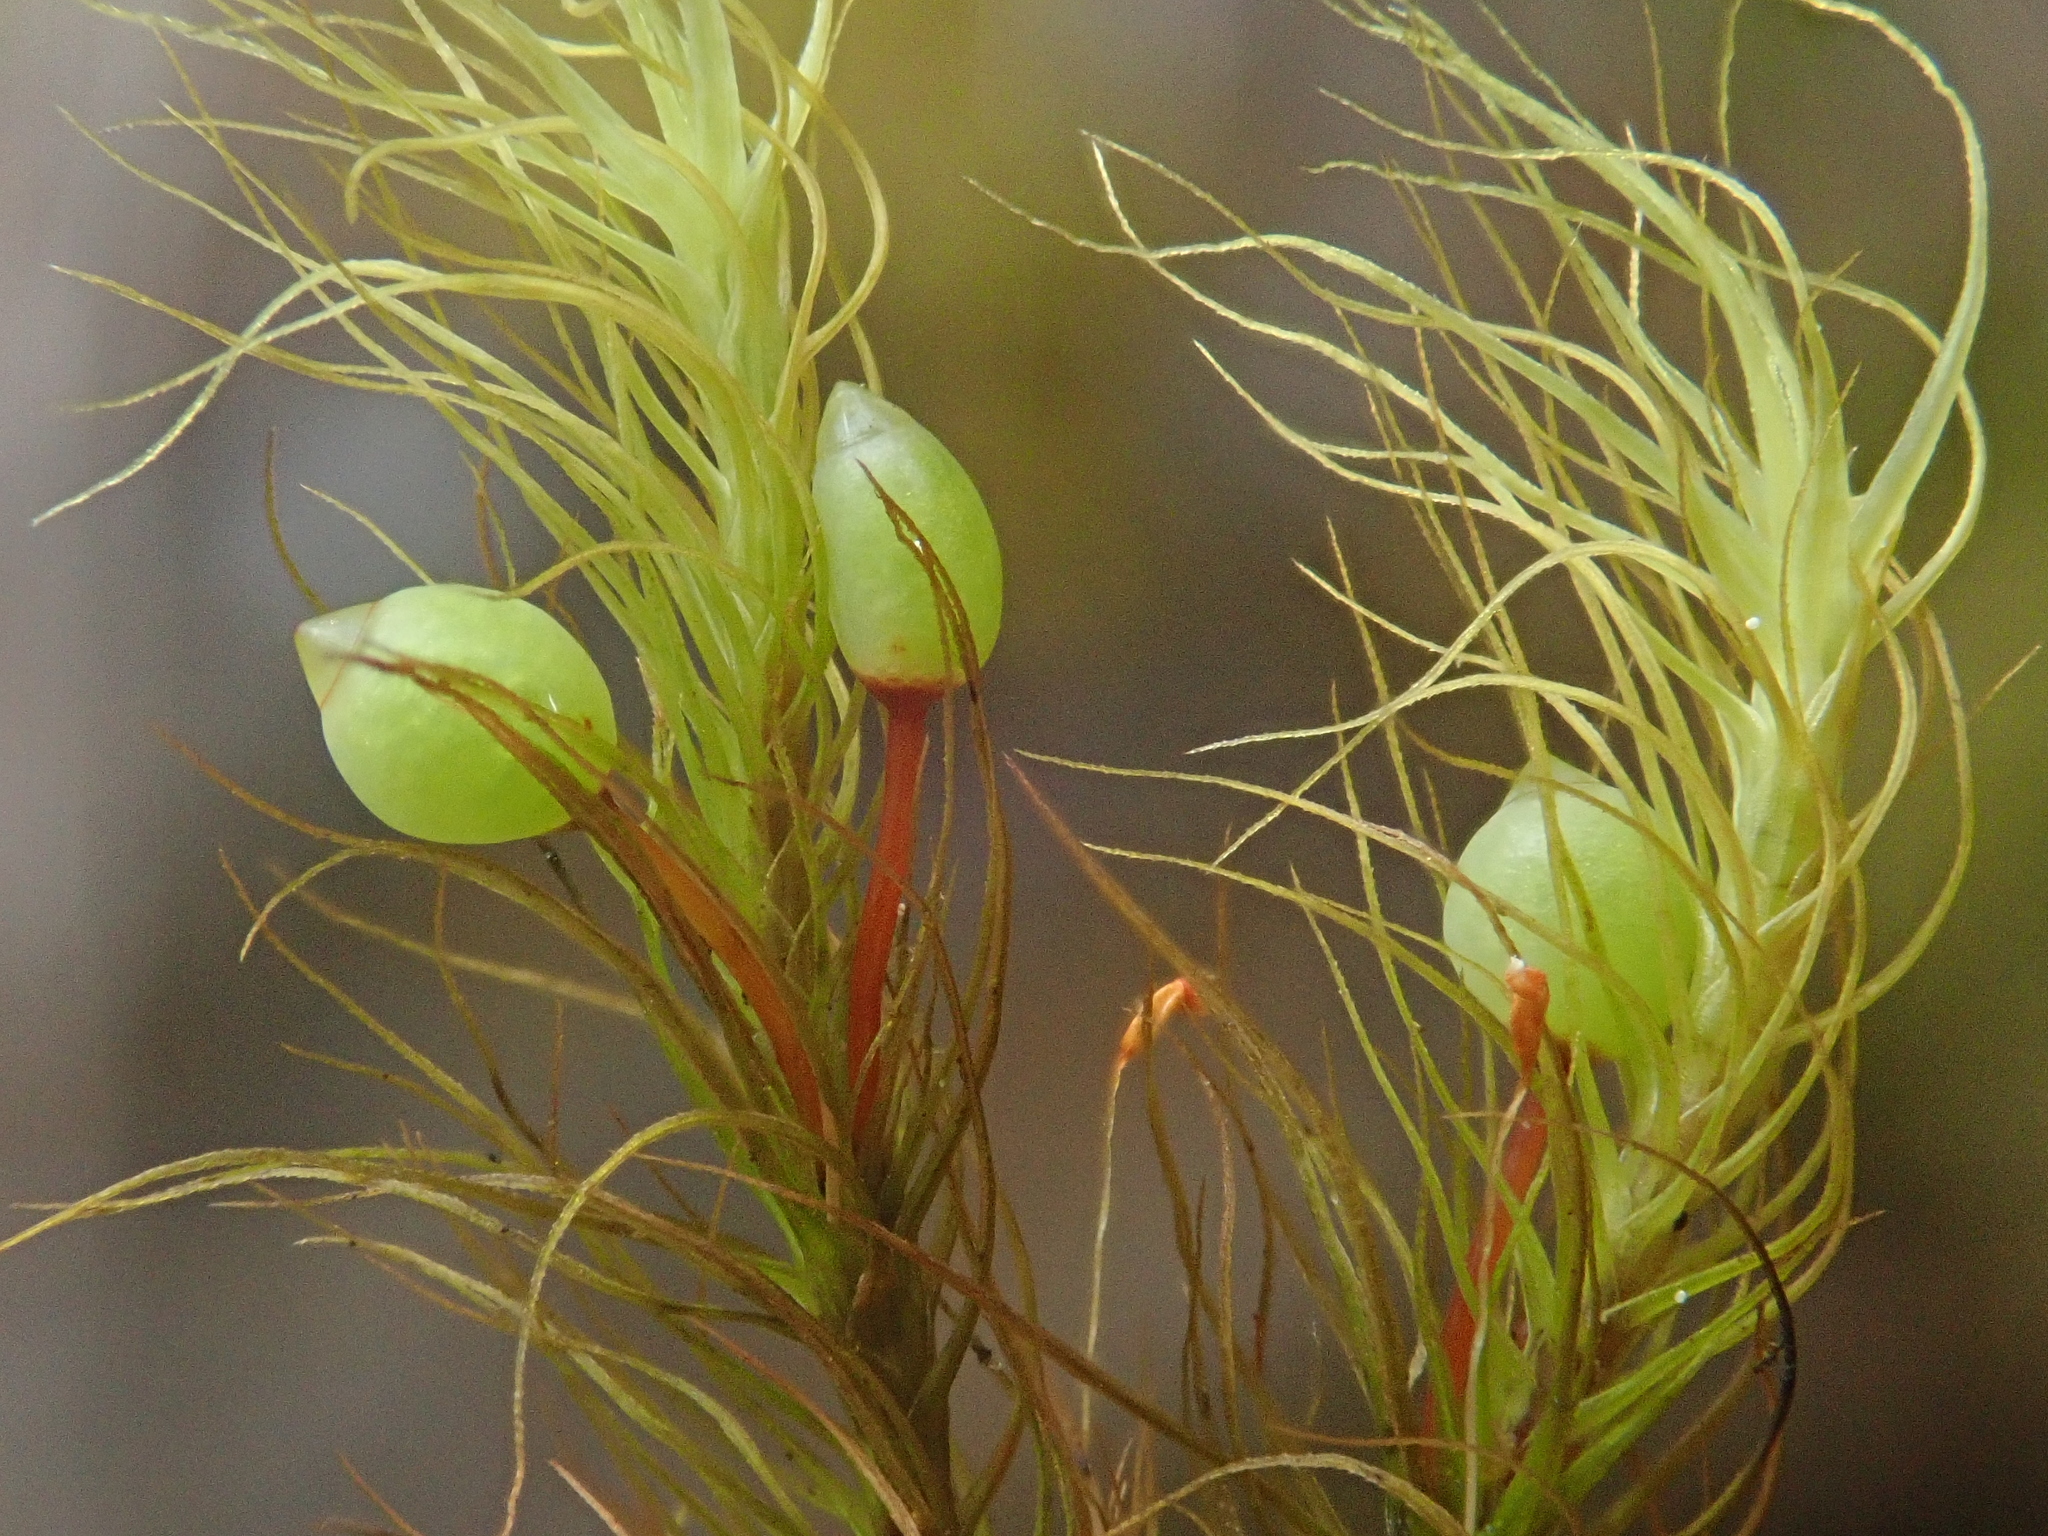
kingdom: Plantae
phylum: Bryophyta
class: Bryopsida
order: Bartramiales
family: Bartramiaceae
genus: Bartramia
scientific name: Bartramia halleriana
